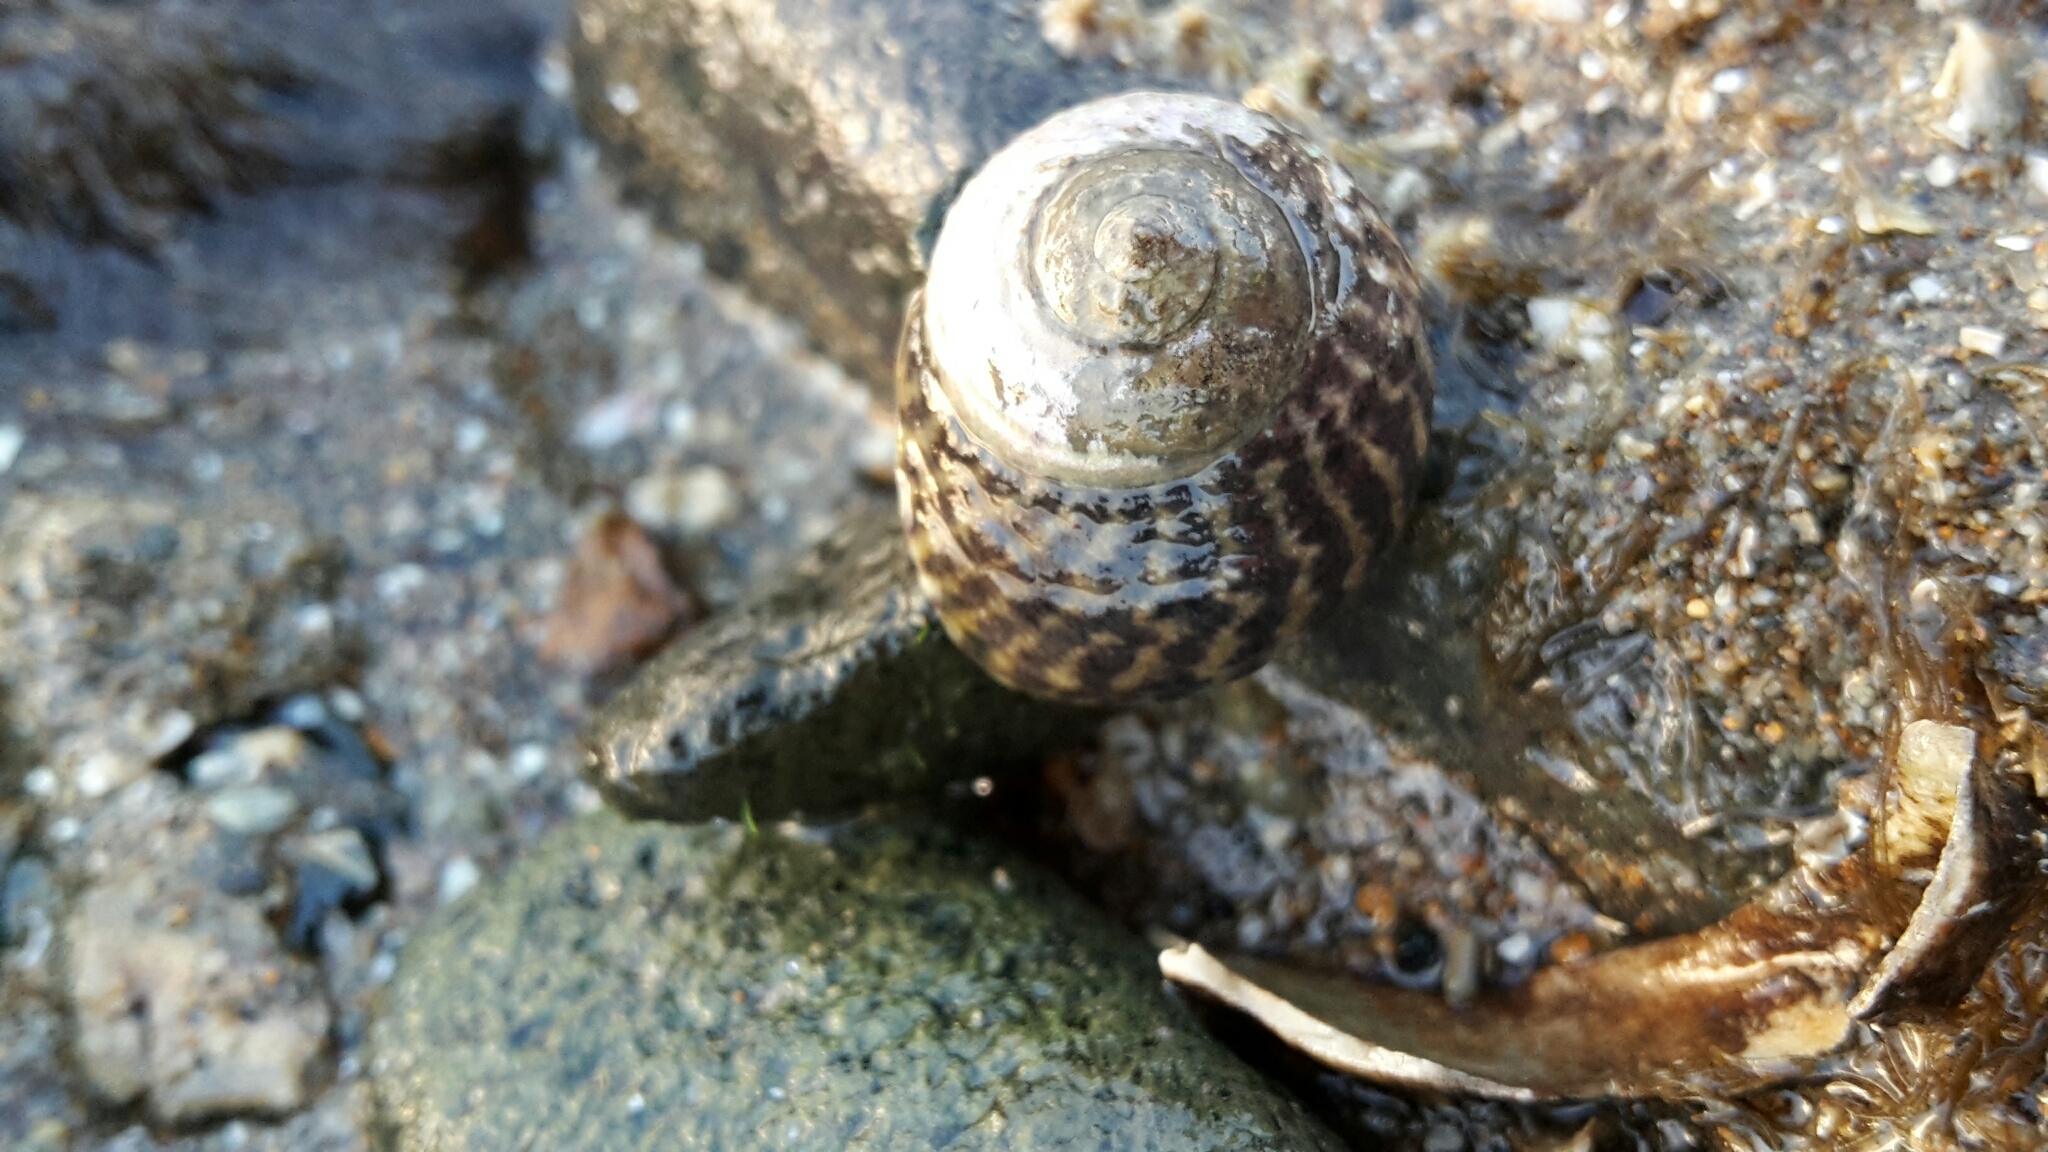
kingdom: Animalia
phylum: Mollusca
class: Gastropoda
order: Trochida
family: Trochidae
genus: Diloma
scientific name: Diloma subrostratum
